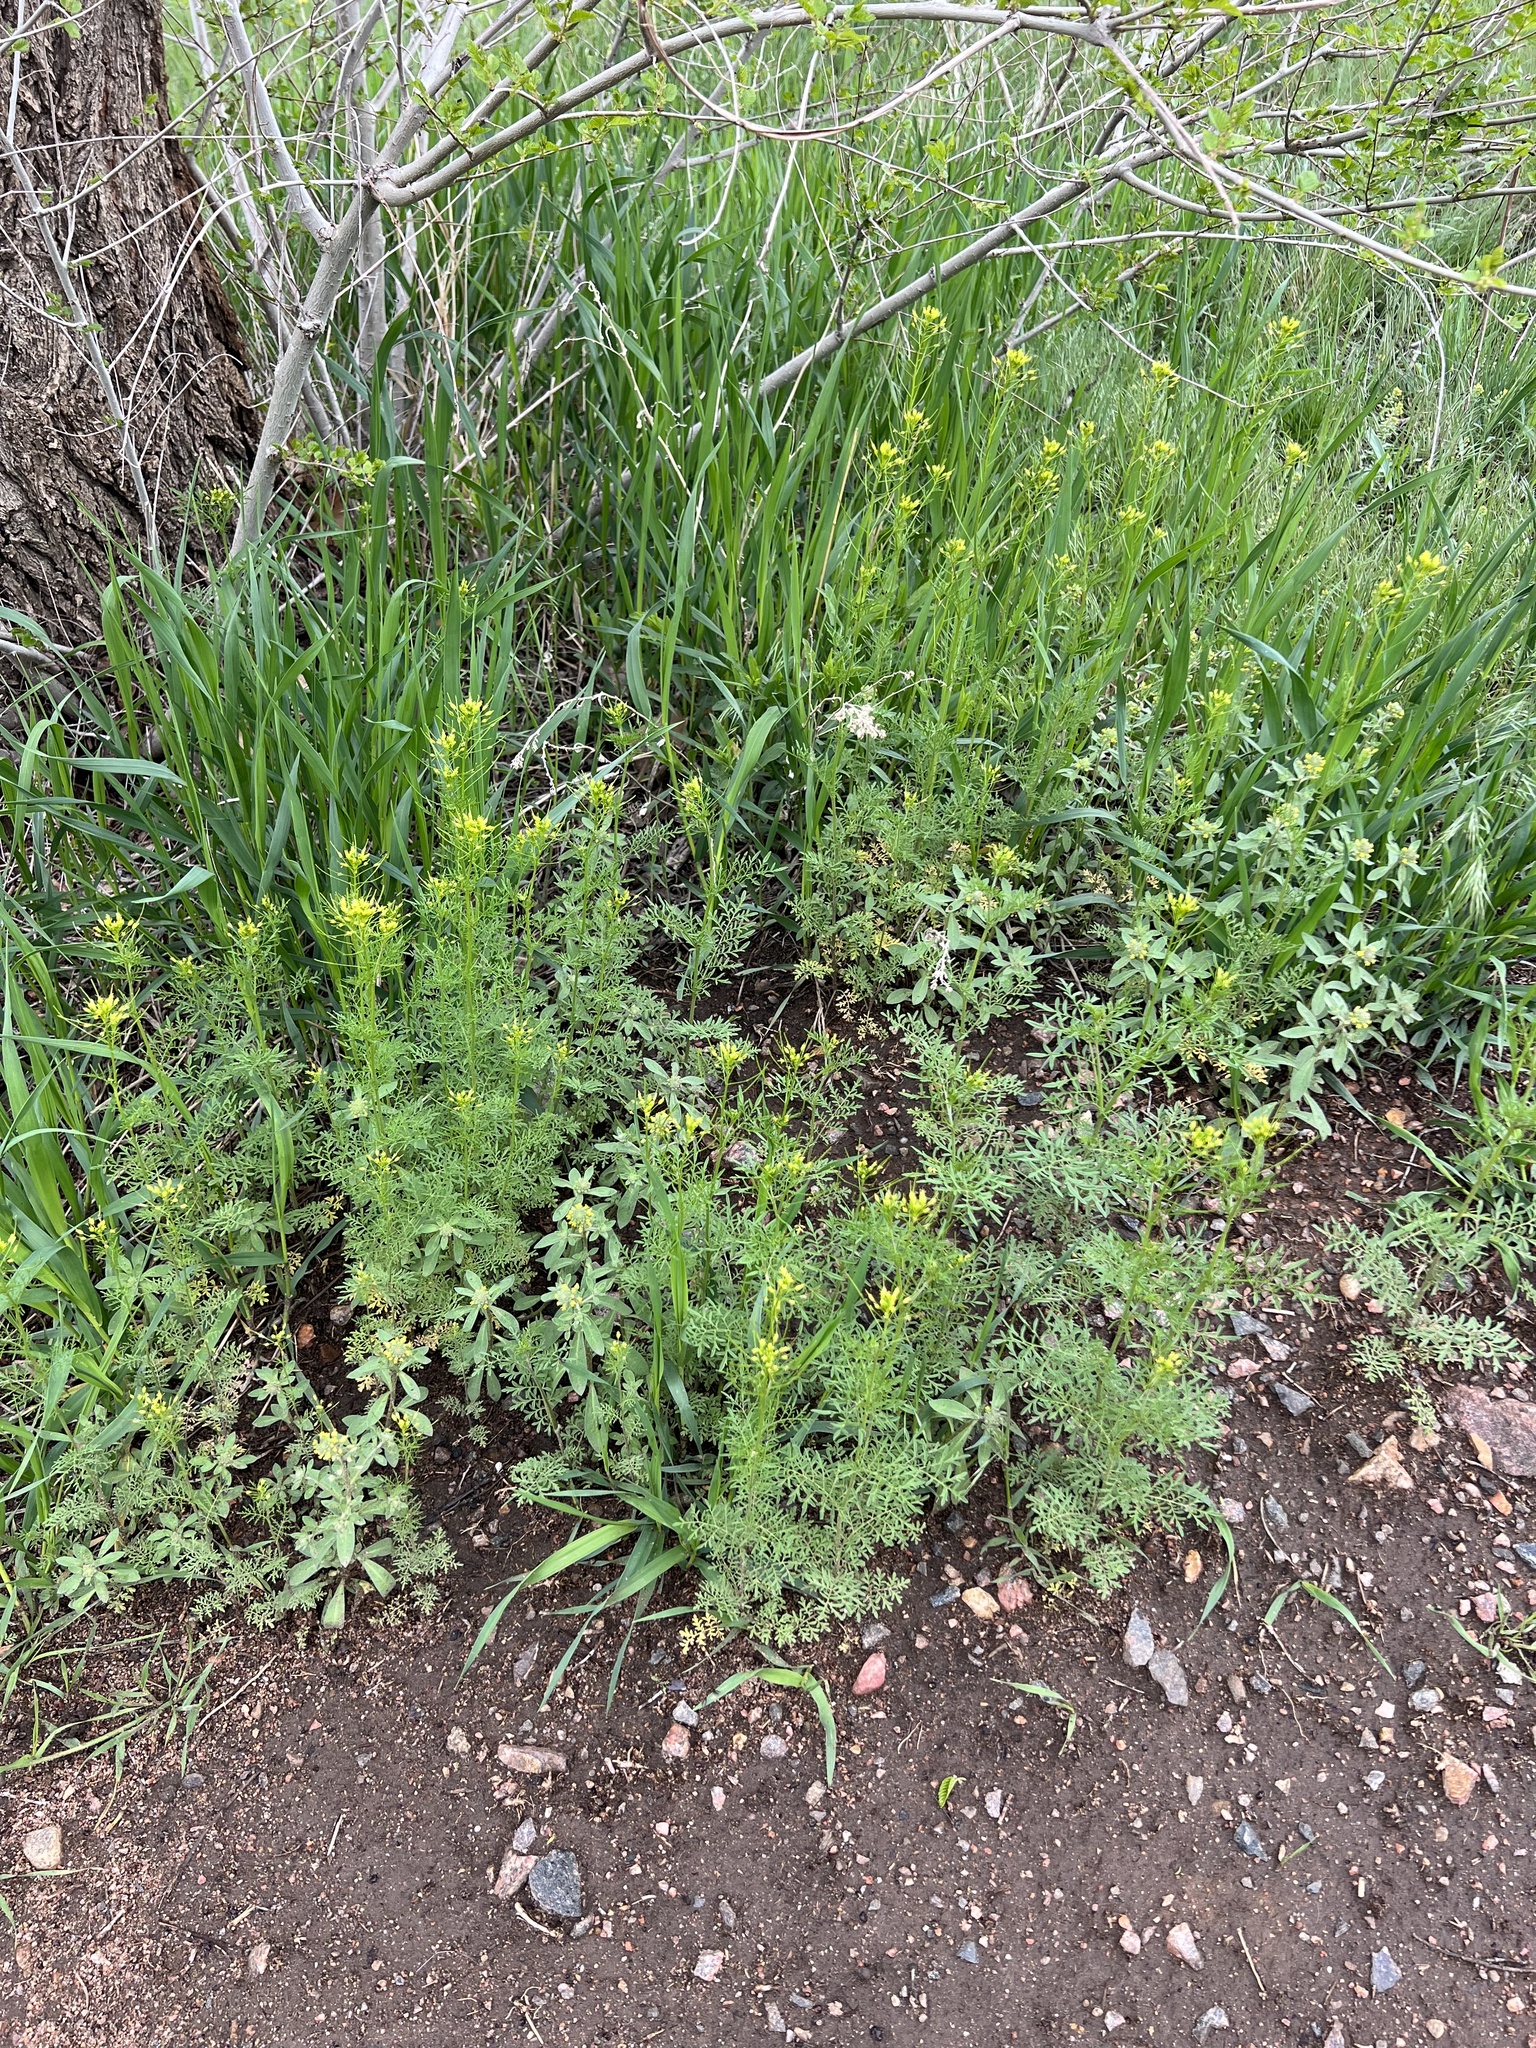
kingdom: Plantae
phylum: Tracheophyta
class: Magnoliopsida
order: Brassicales
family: Brassicaceae
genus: Descurainia
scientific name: Descurainia sophia
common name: Flixweed
